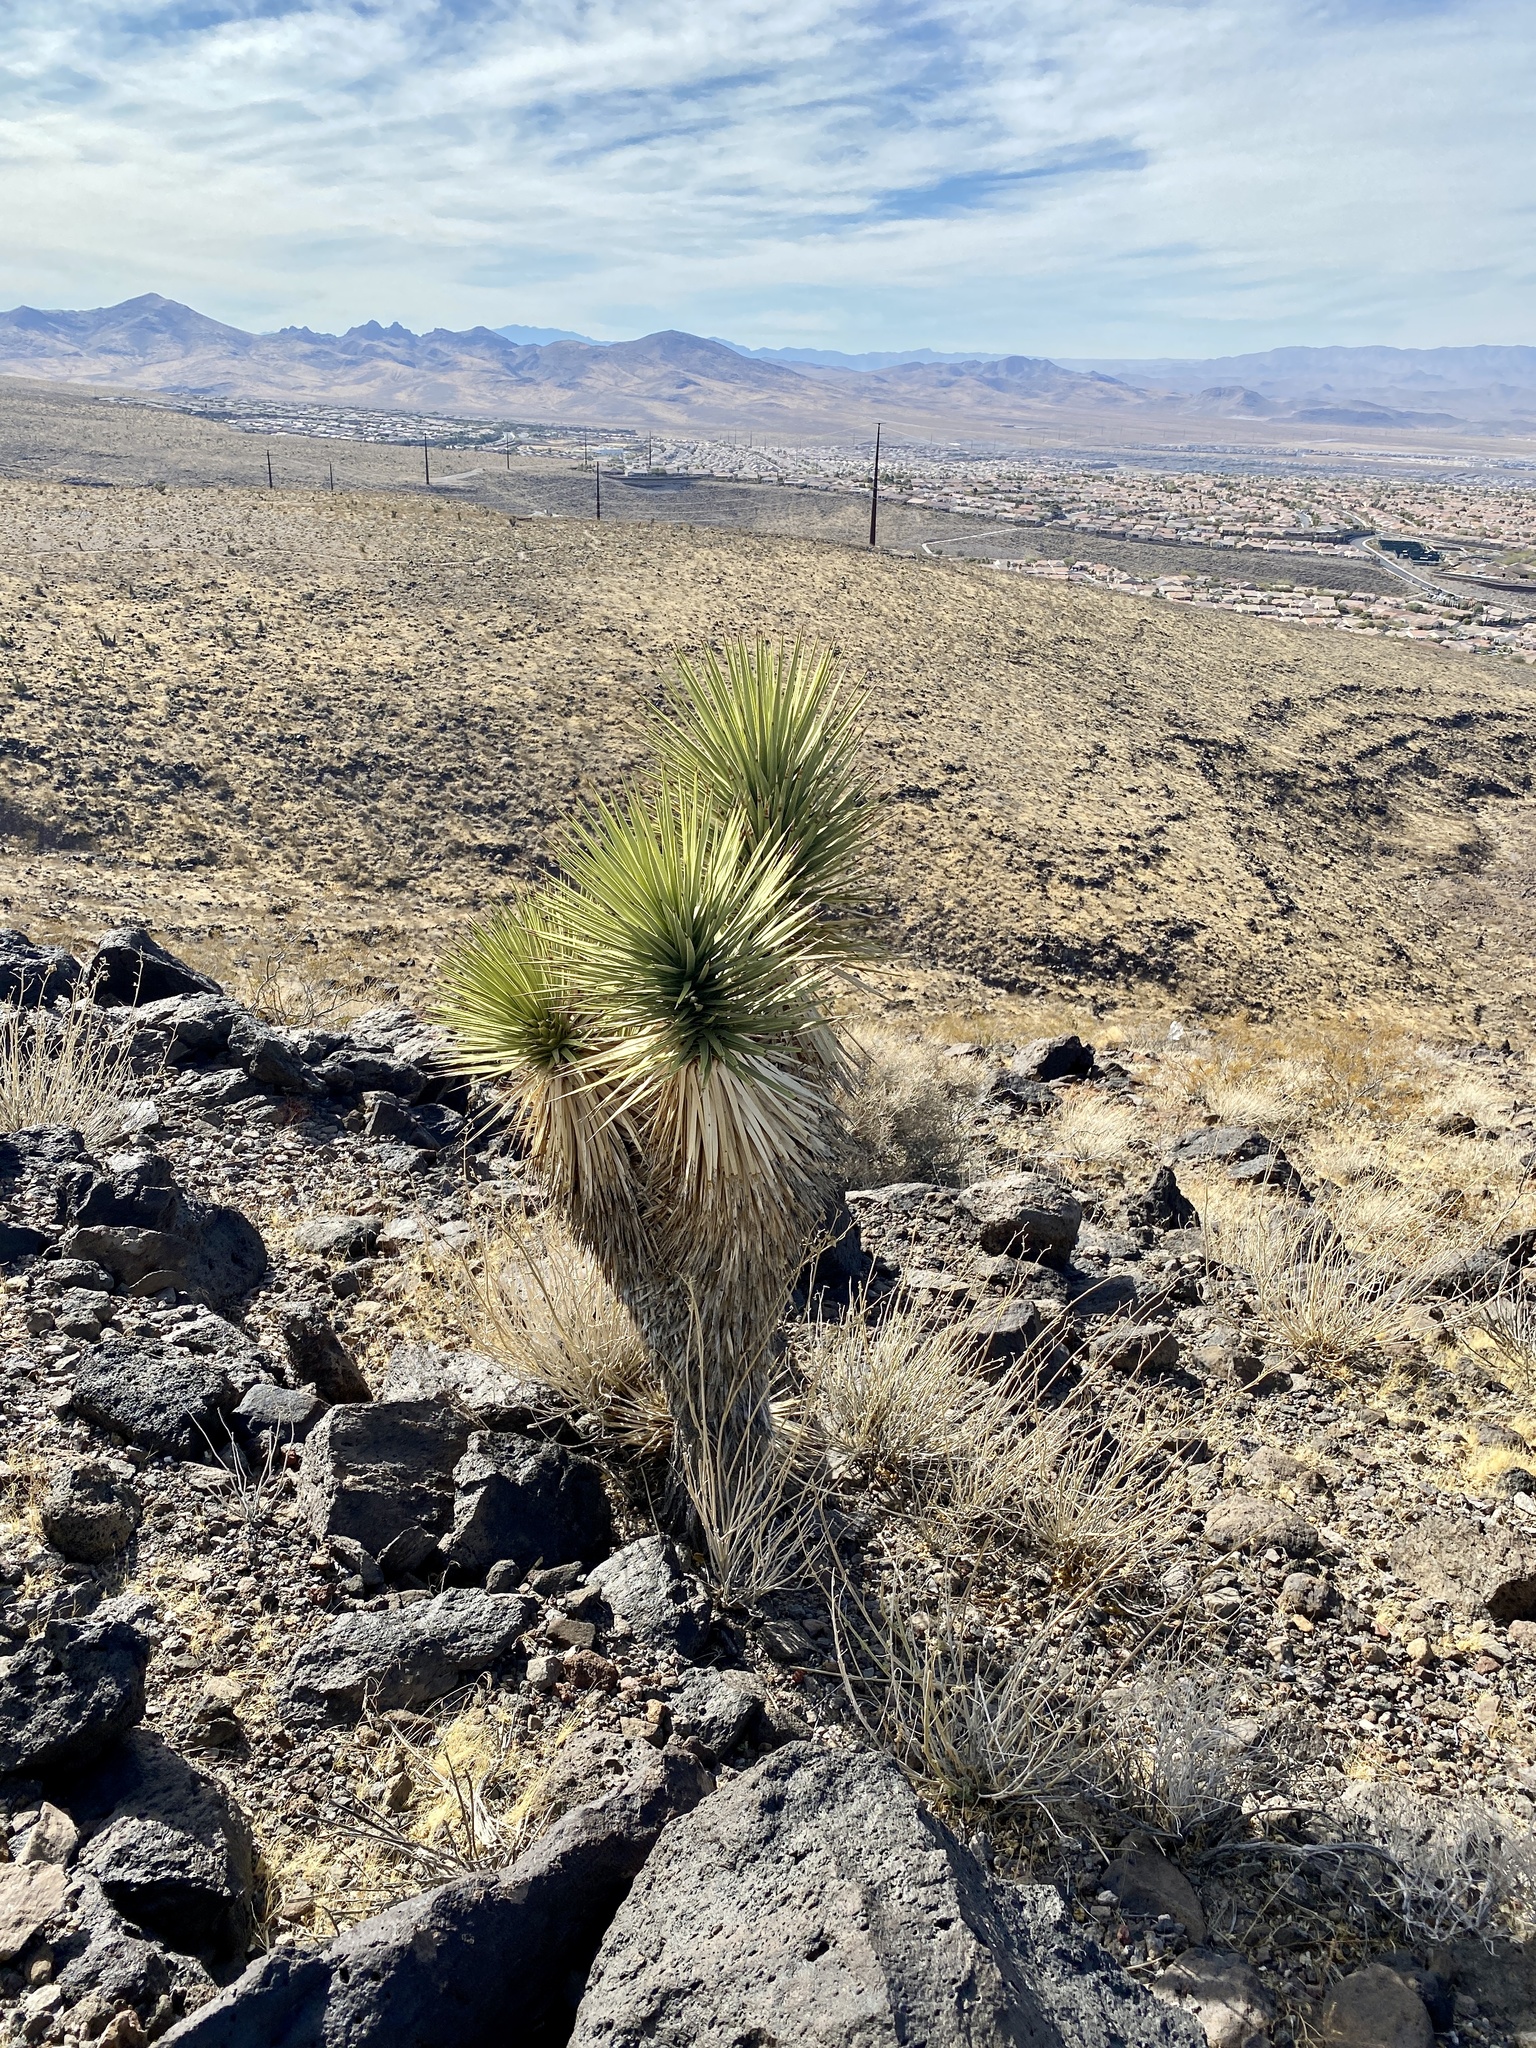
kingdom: Plantae
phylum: Tracheophyta
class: Liliopsida
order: Asparagales
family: Asparagaceae
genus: Yucca
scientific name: Yucca brevifolia
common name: Joshua tree
